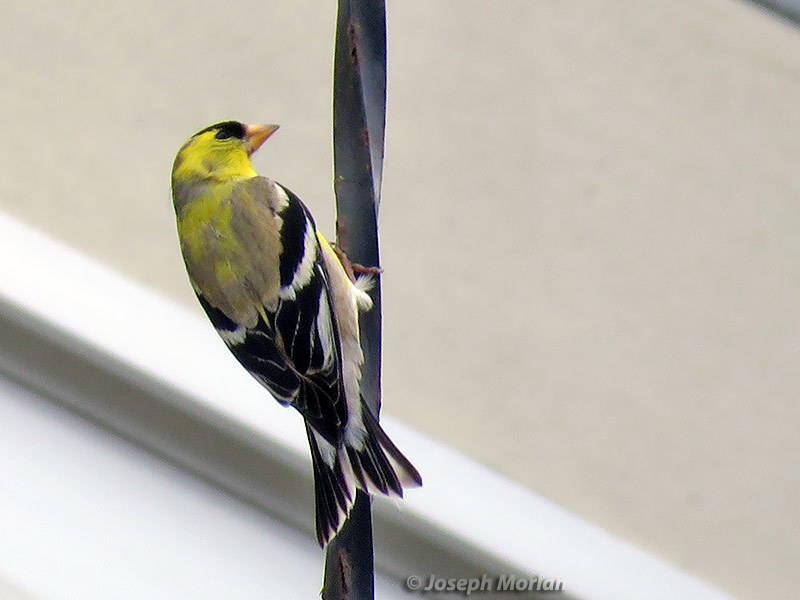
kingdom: Animalia
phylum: Chordata
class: Aves
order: Passeriformes
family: Fringillidae
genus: Spinus
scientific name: Spinus tristis
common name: American goldfinch
